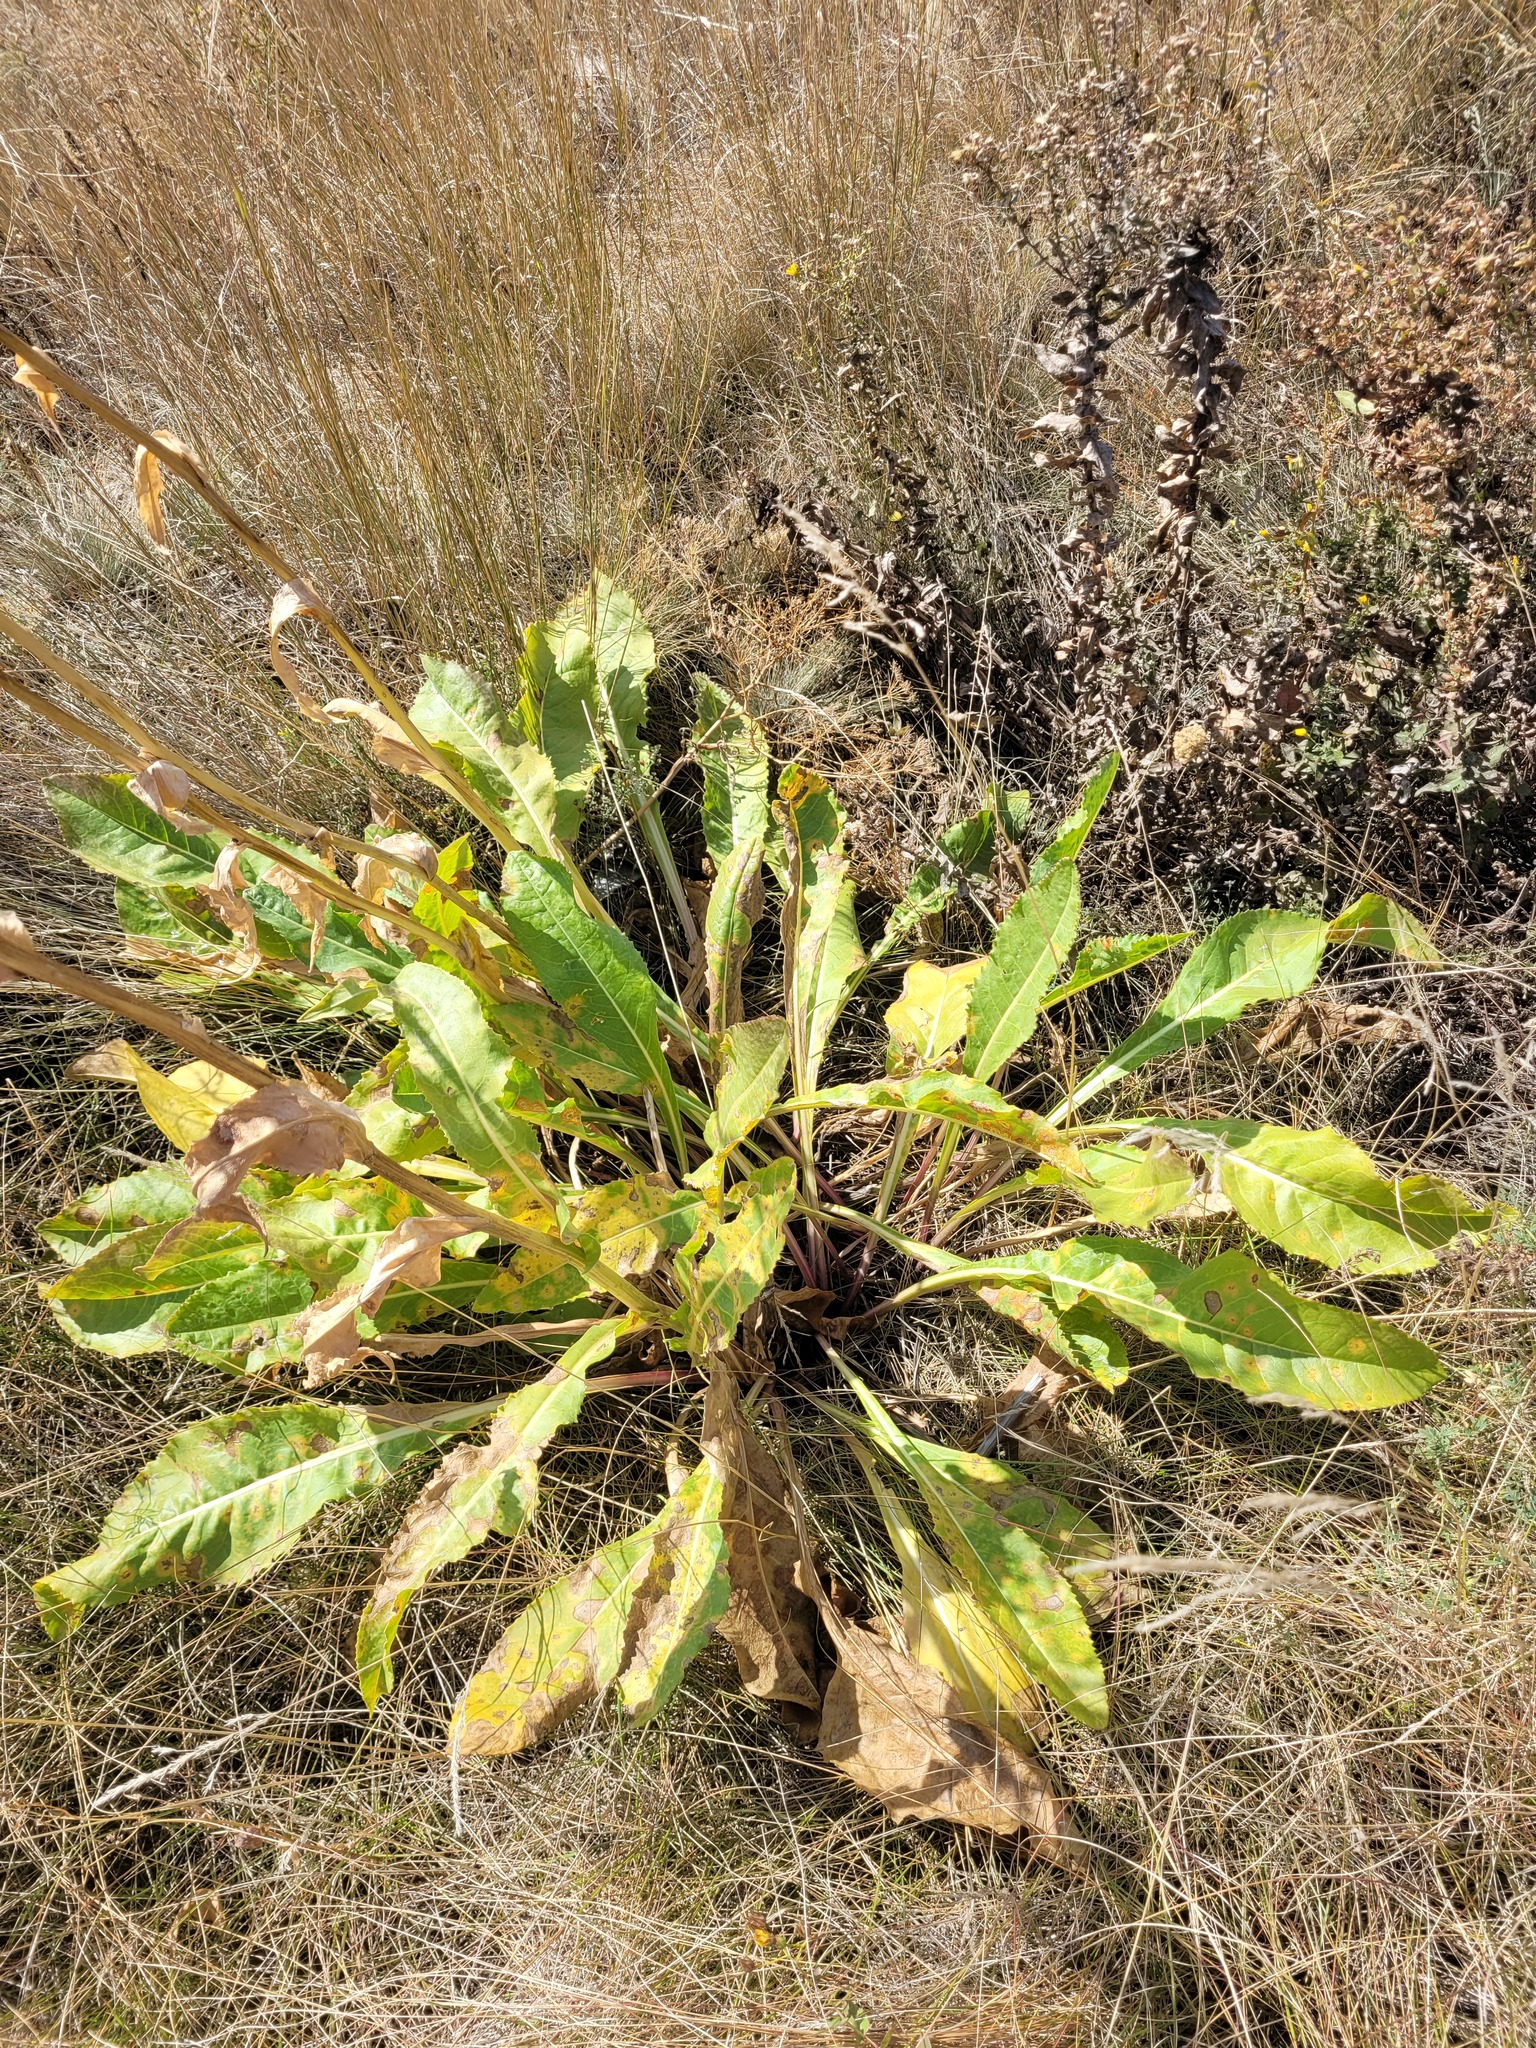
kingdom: Plantae
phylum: Tracheophyta
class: Magnoliopsida
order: Asterales
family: Asteraceae
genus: Senecio
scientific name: Senecio doria
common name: Golden ragwort
